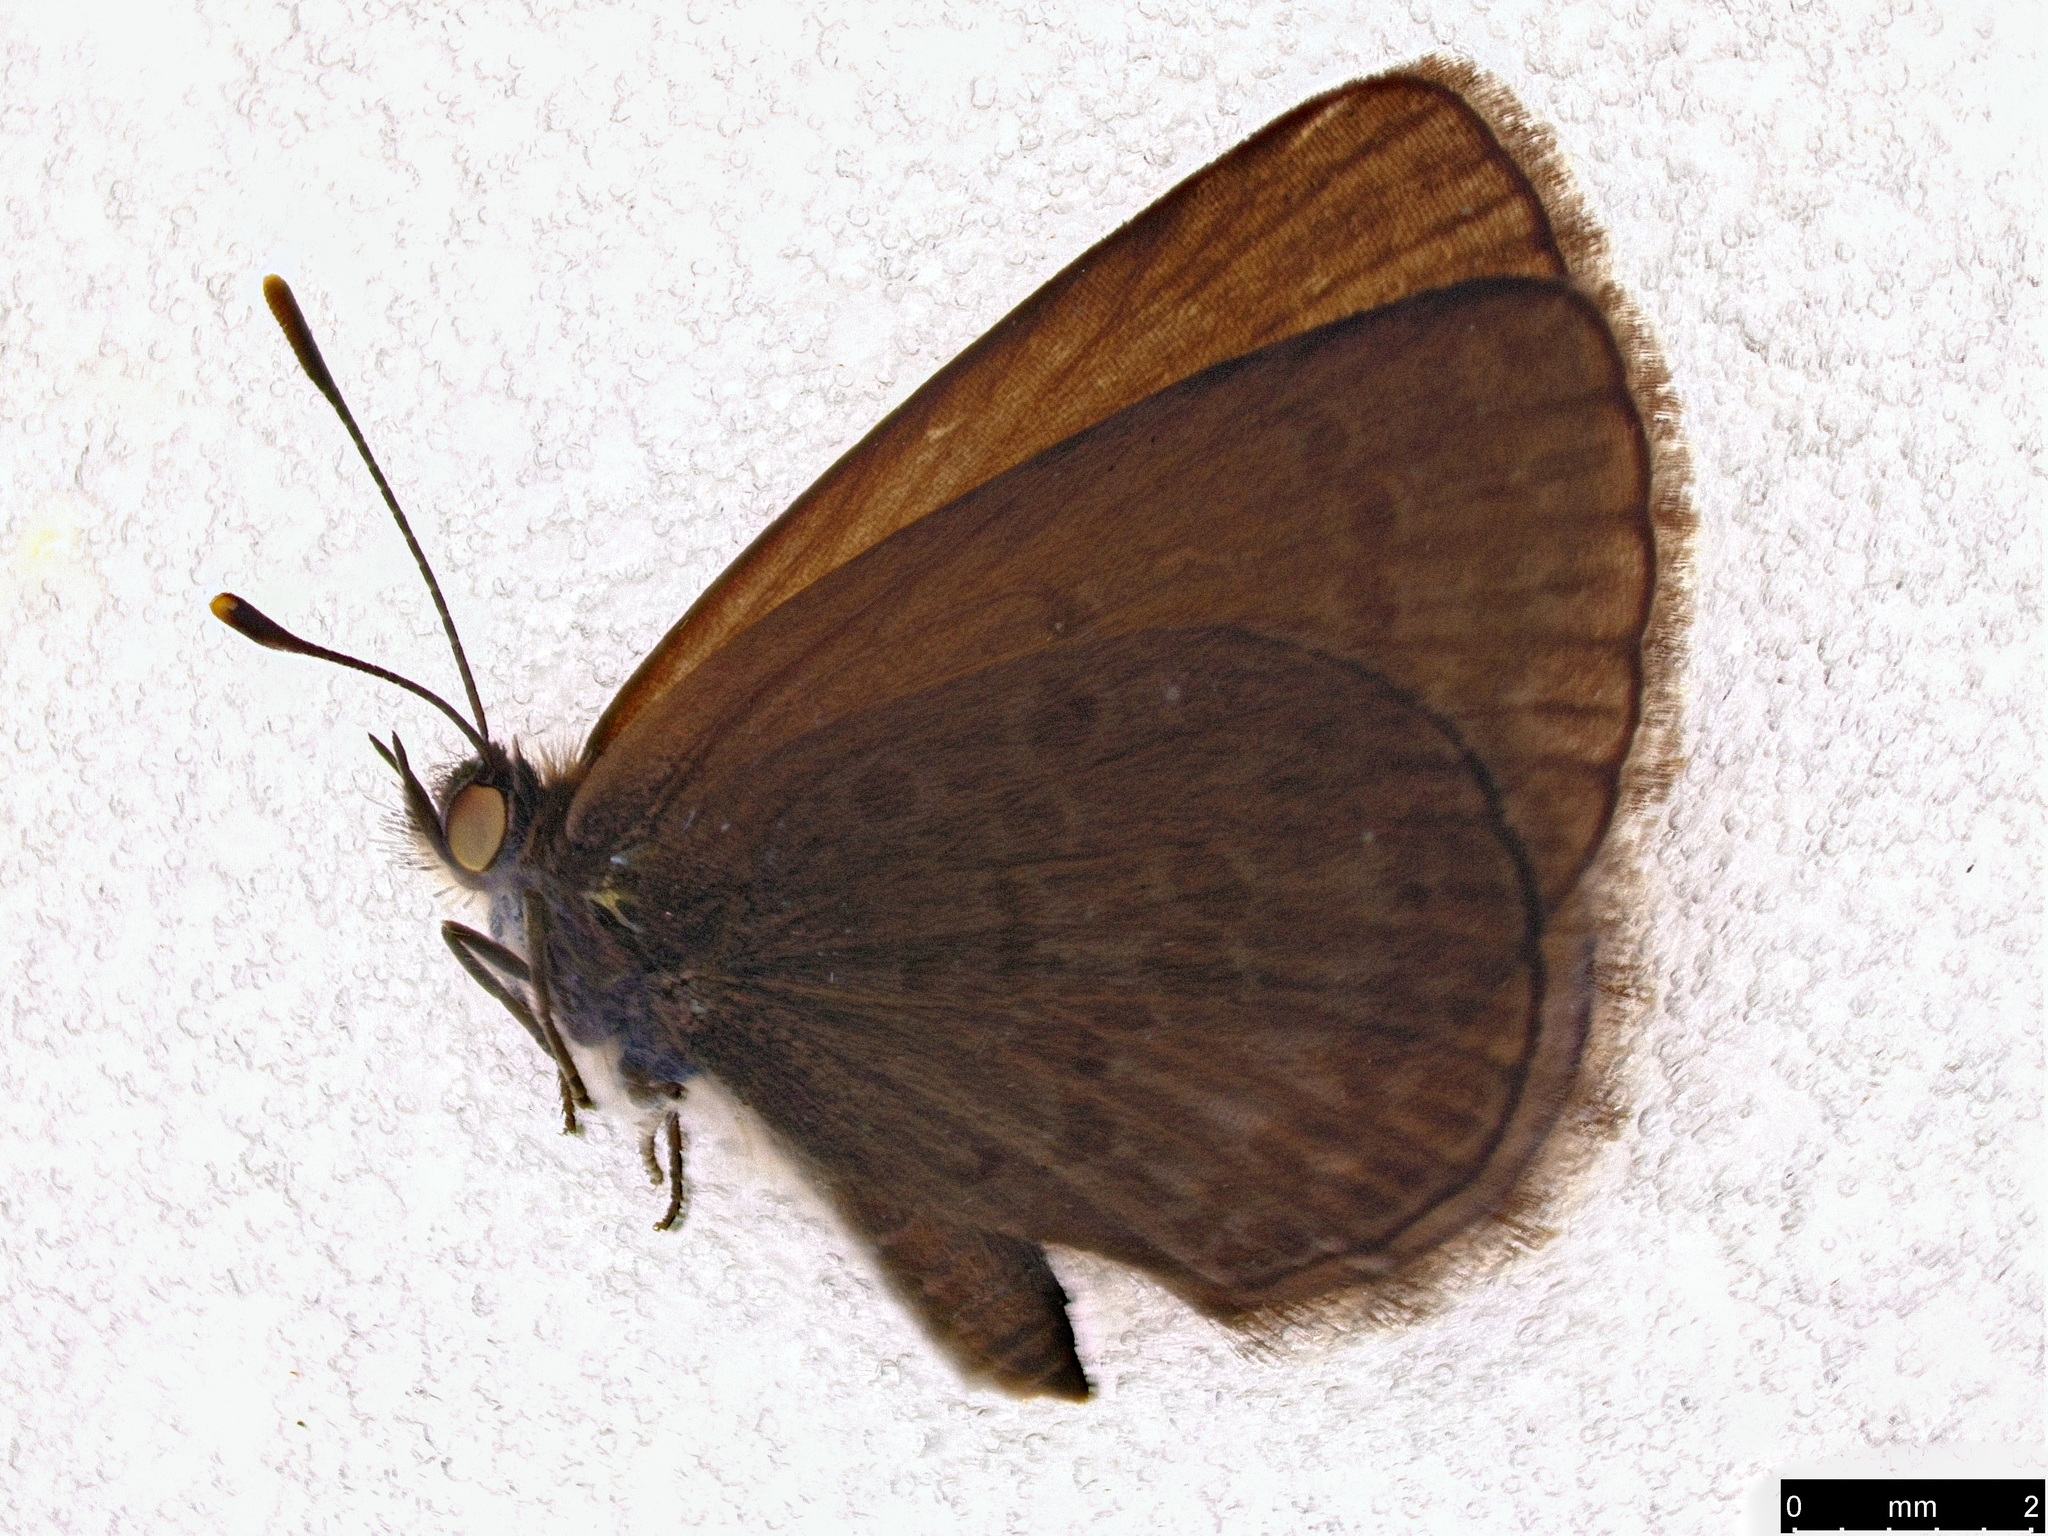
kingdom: Animalia
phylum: Arthropoda
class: Insecta
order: Lepidoptera
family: Lycaenidae
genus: Zizina
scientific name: Zizina labradus
